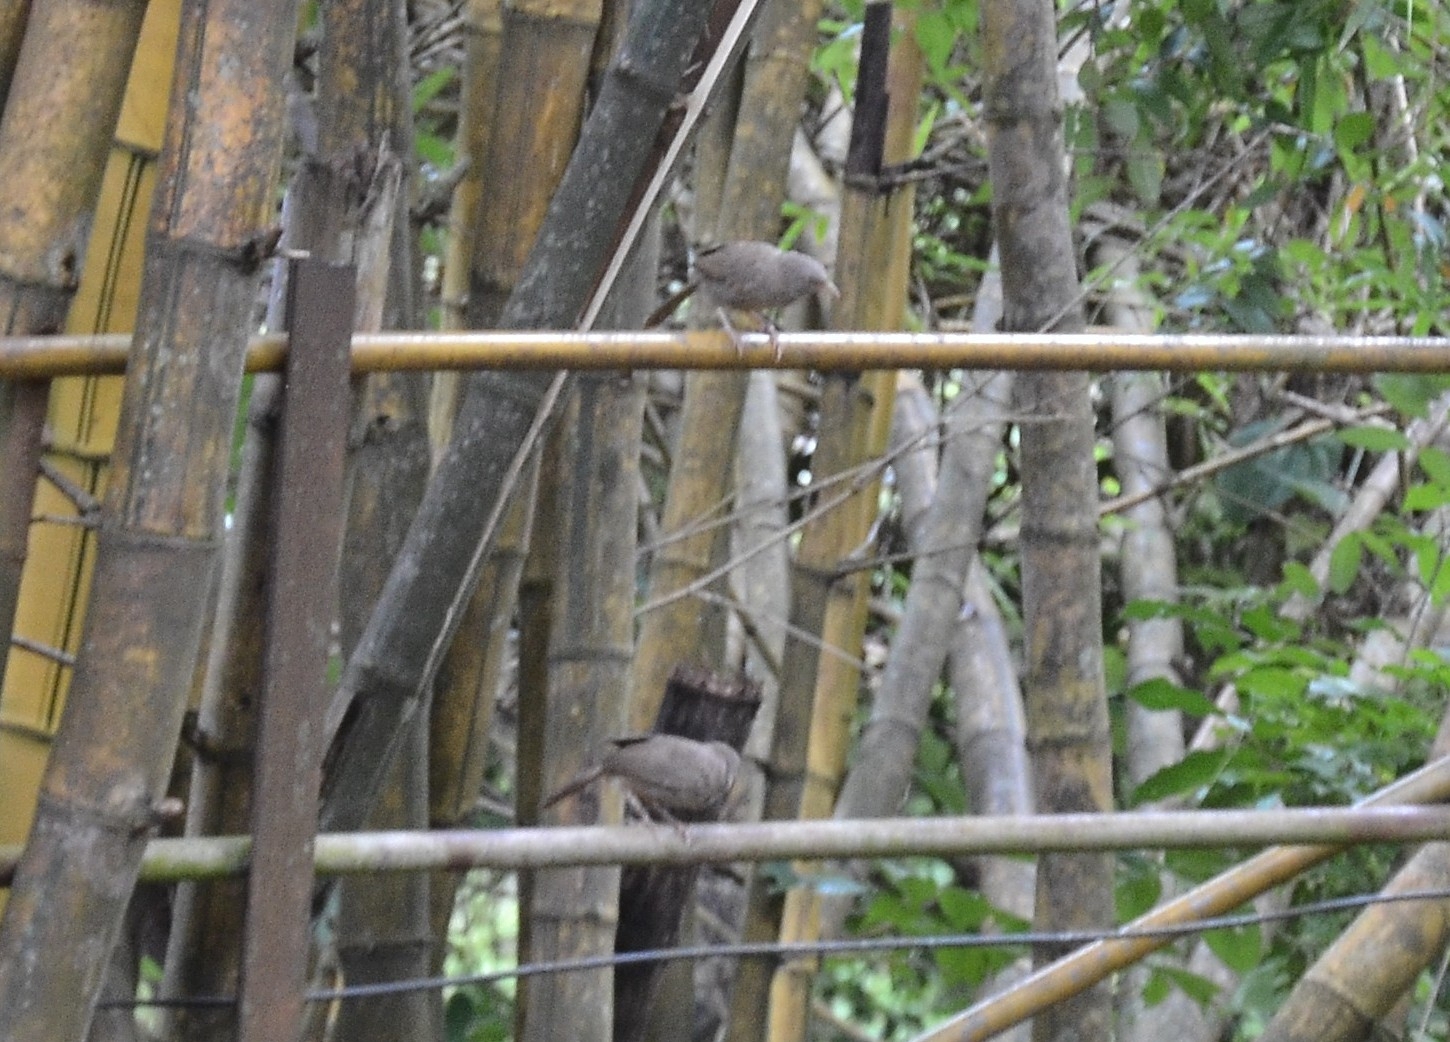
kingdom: Animalia
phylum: Chordata
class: Aves
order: Passeriformes
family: Leiothrichidae
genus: Turdoides
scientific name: Turdoides striata
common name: Jungle babbler
